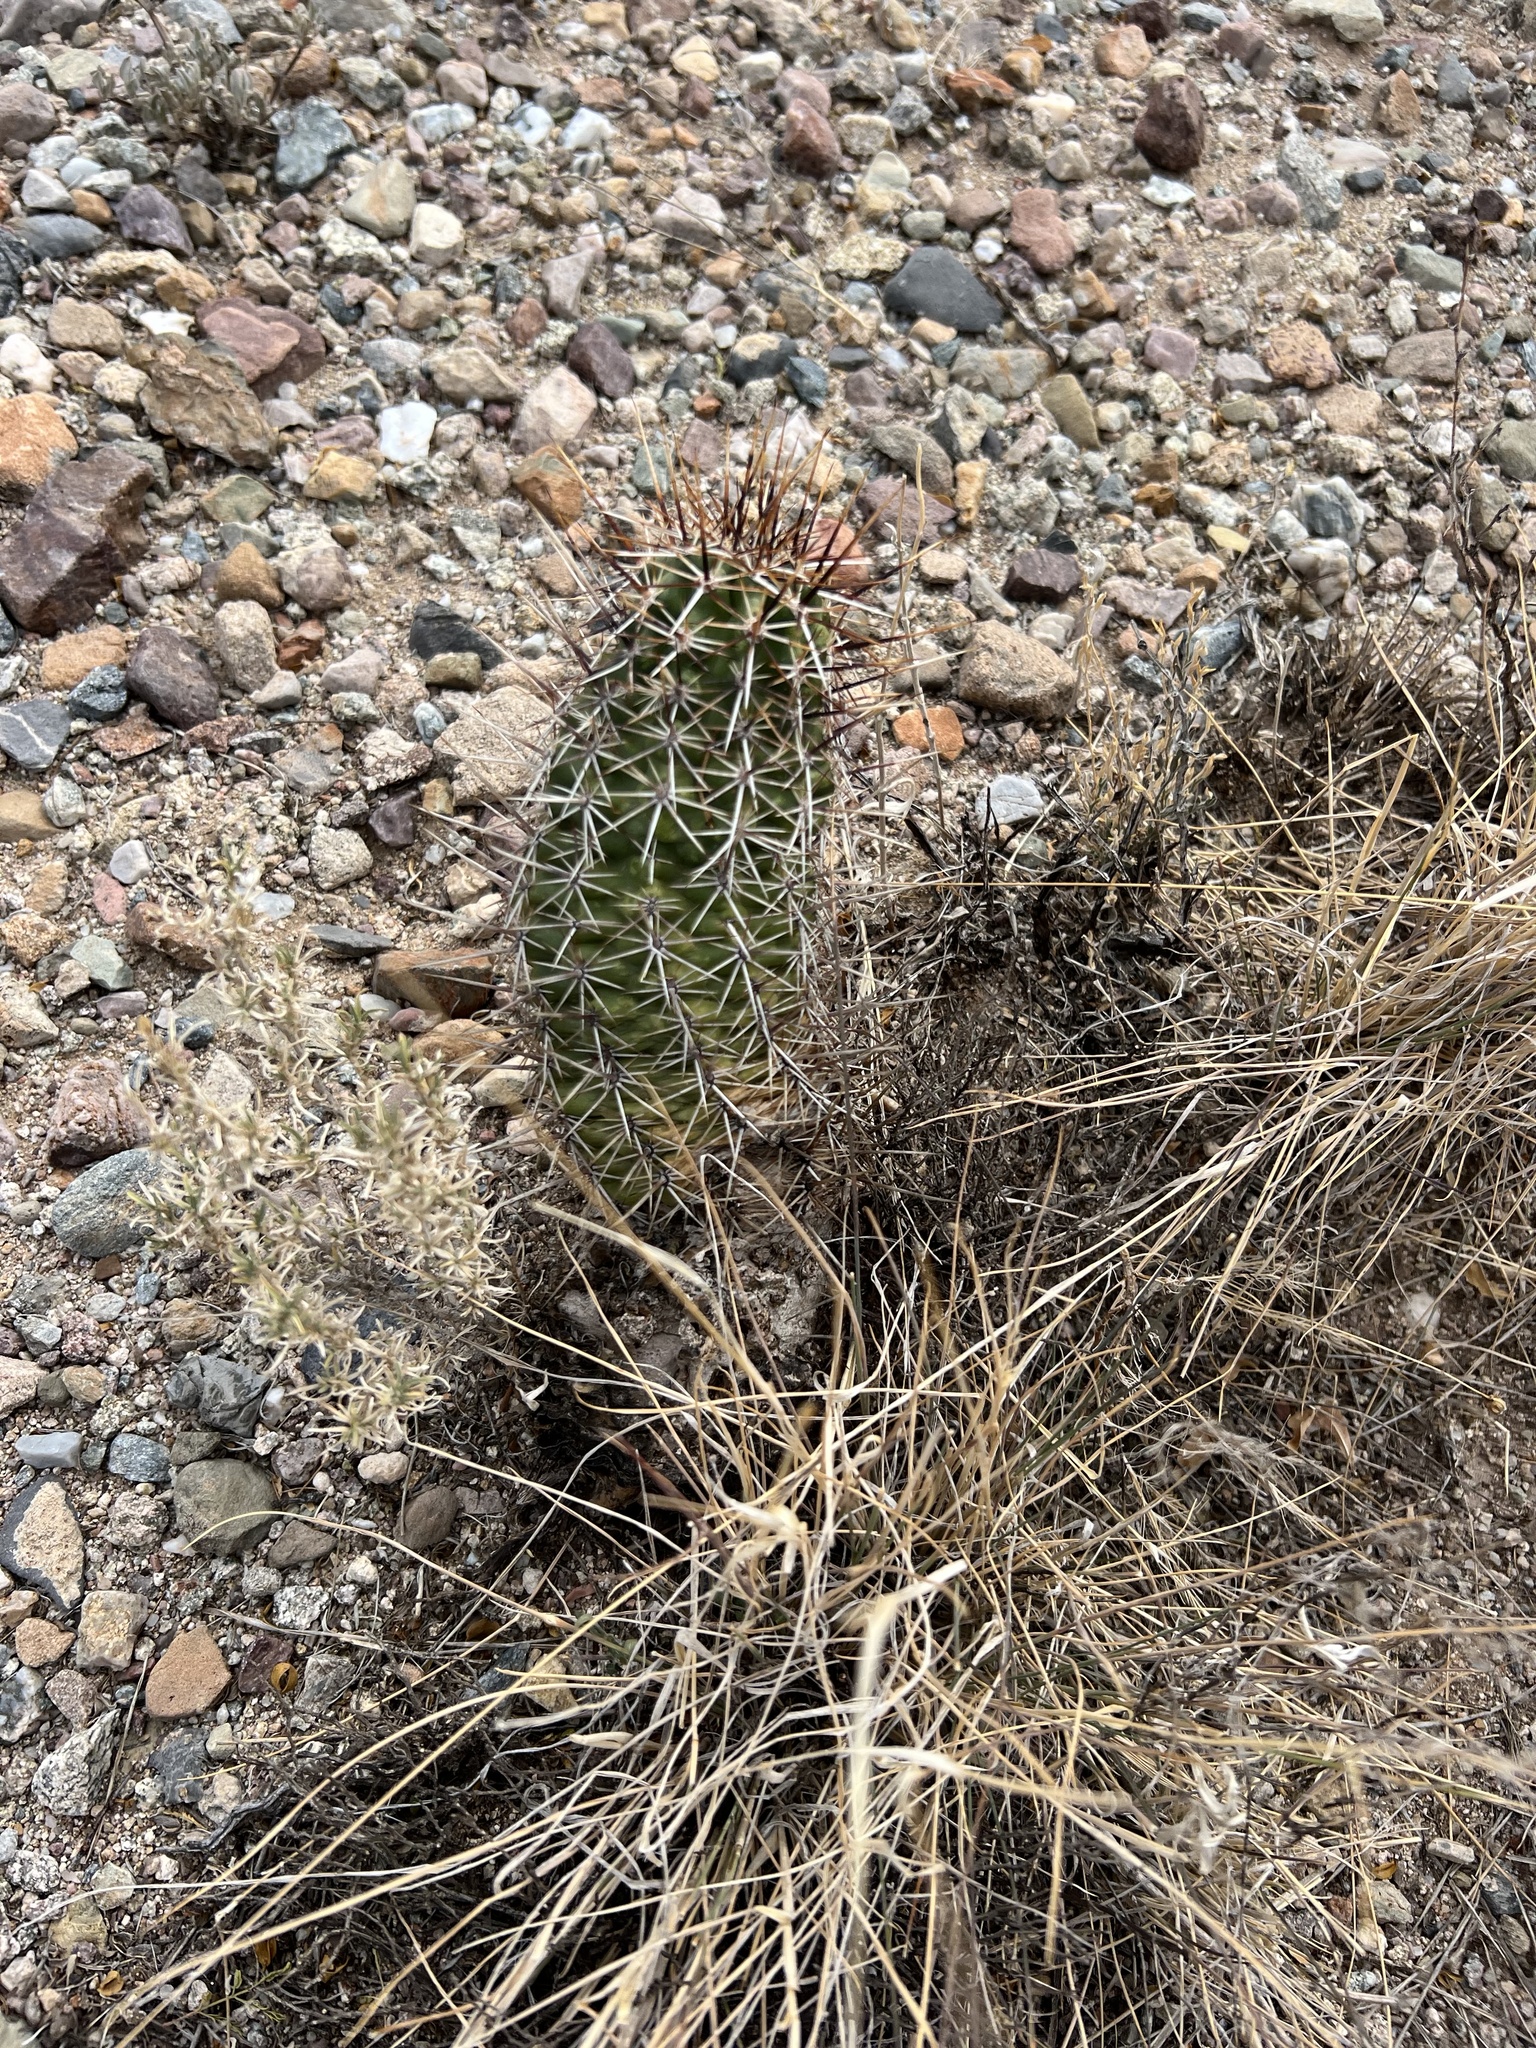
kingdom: Plantae
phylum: Tracheophyta
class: Magnoliopsida
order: Caryophyllales
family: Cactaceae
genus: Echinocereus
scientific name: Echinocereus fasciculatus
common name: Bundle hedgehog
